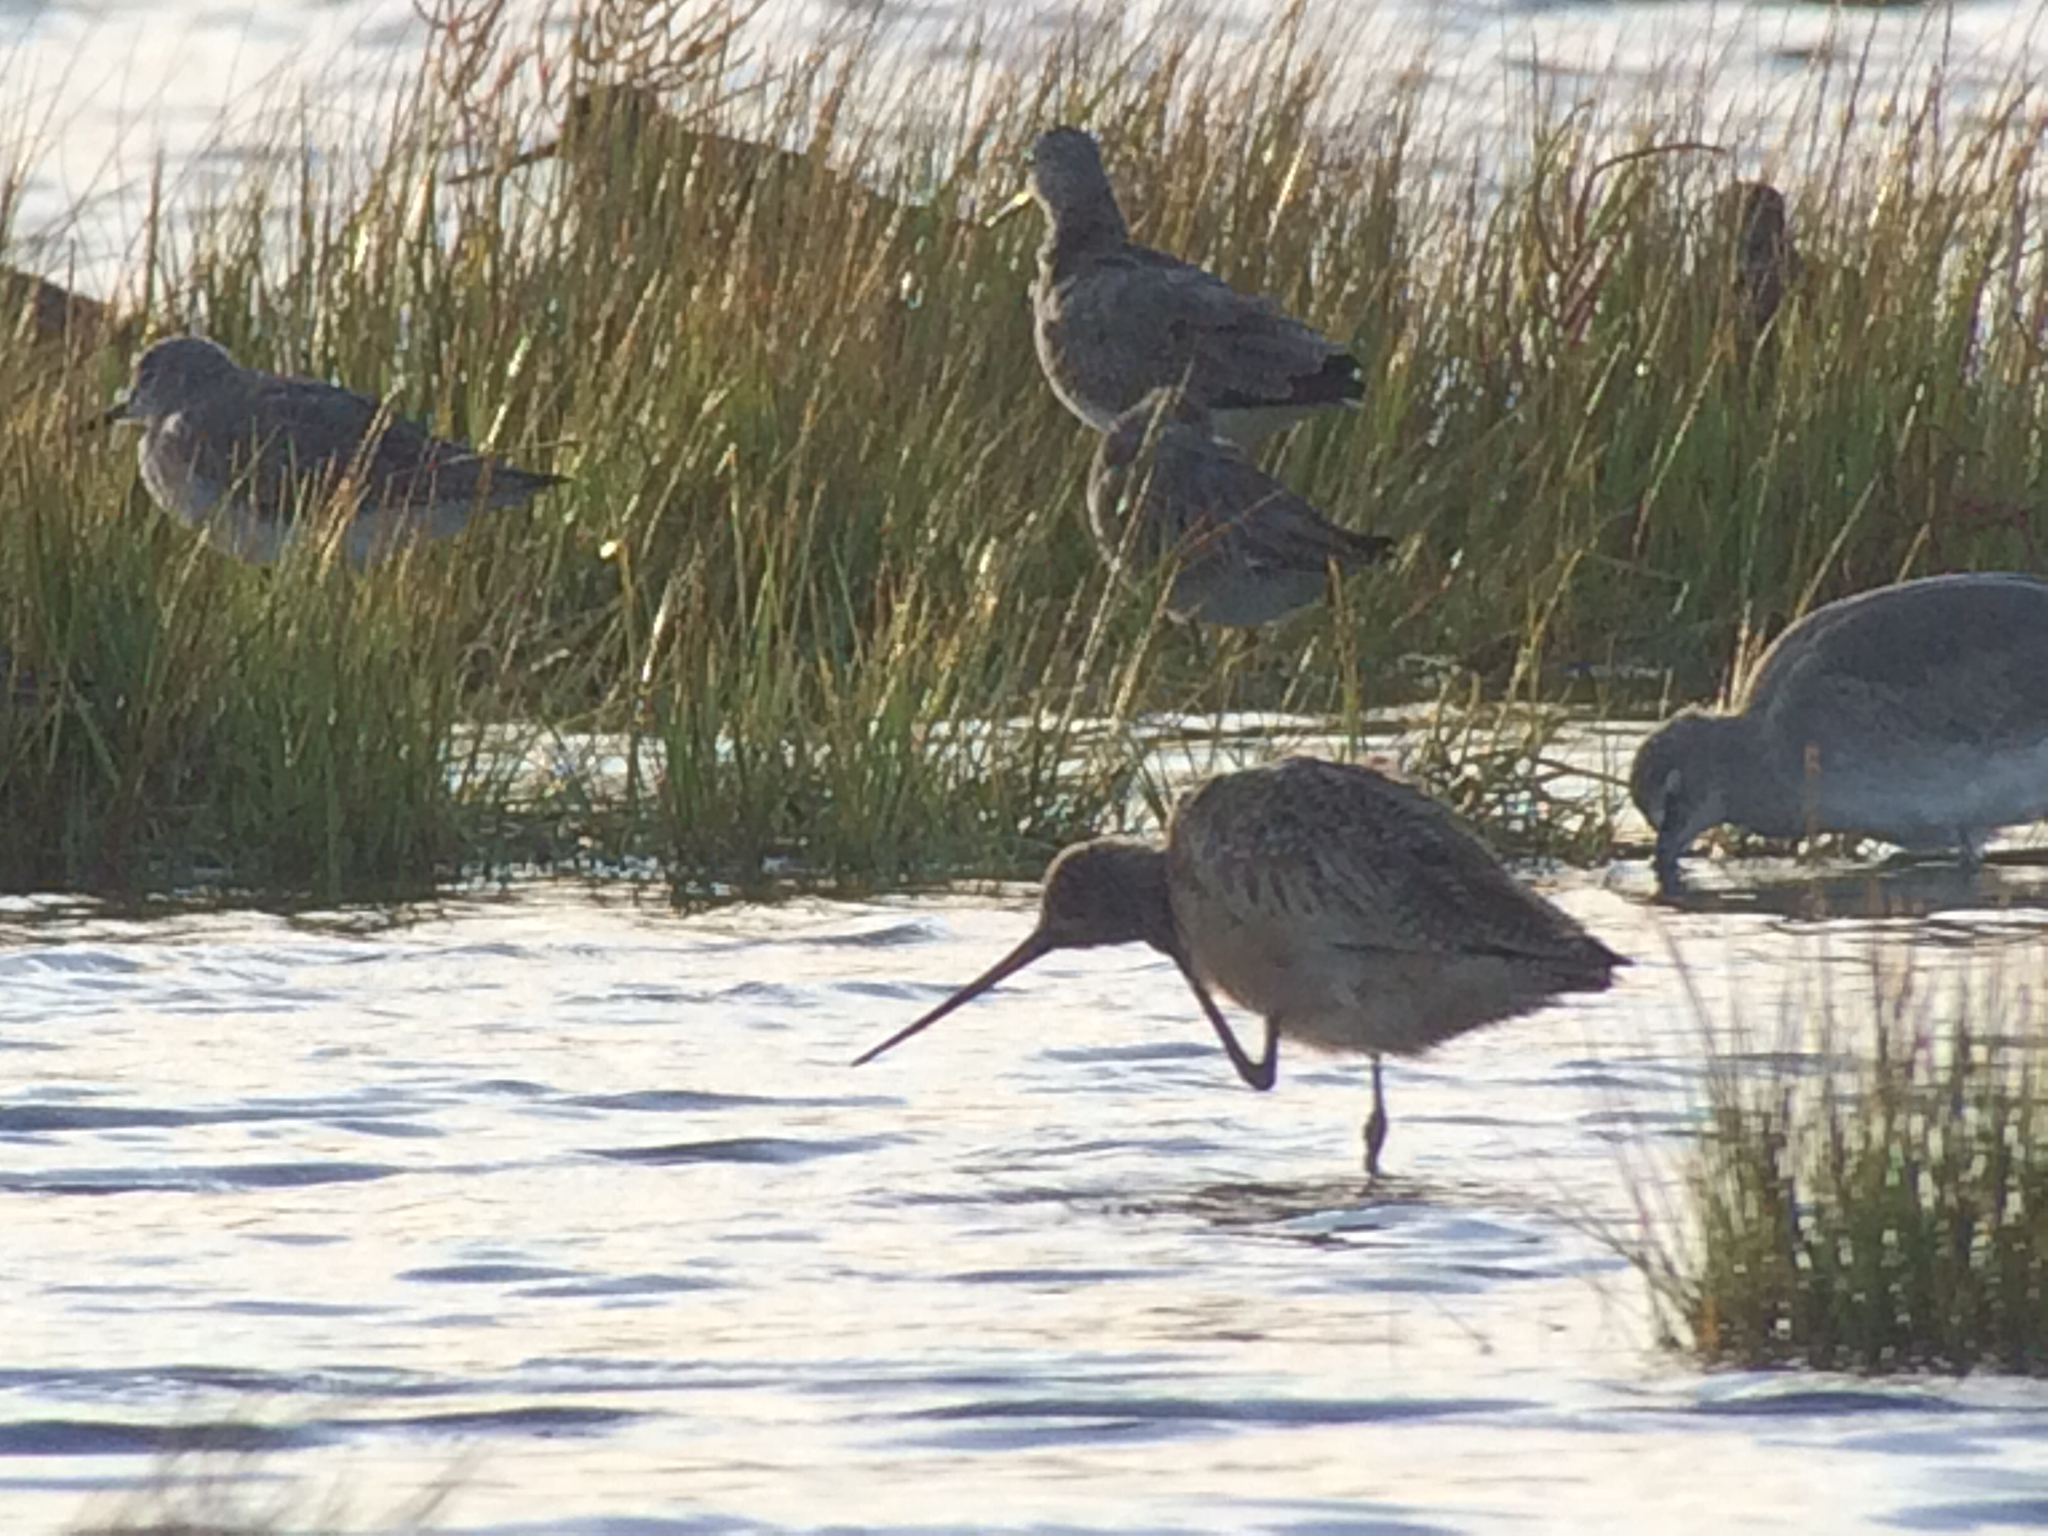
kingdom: Animalia
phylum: Chordata
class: Aves
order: Charadriiformes
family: Scolopacidae
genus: Tringa
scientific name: Tringa melanoleuca
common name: Greater yellowlegs
